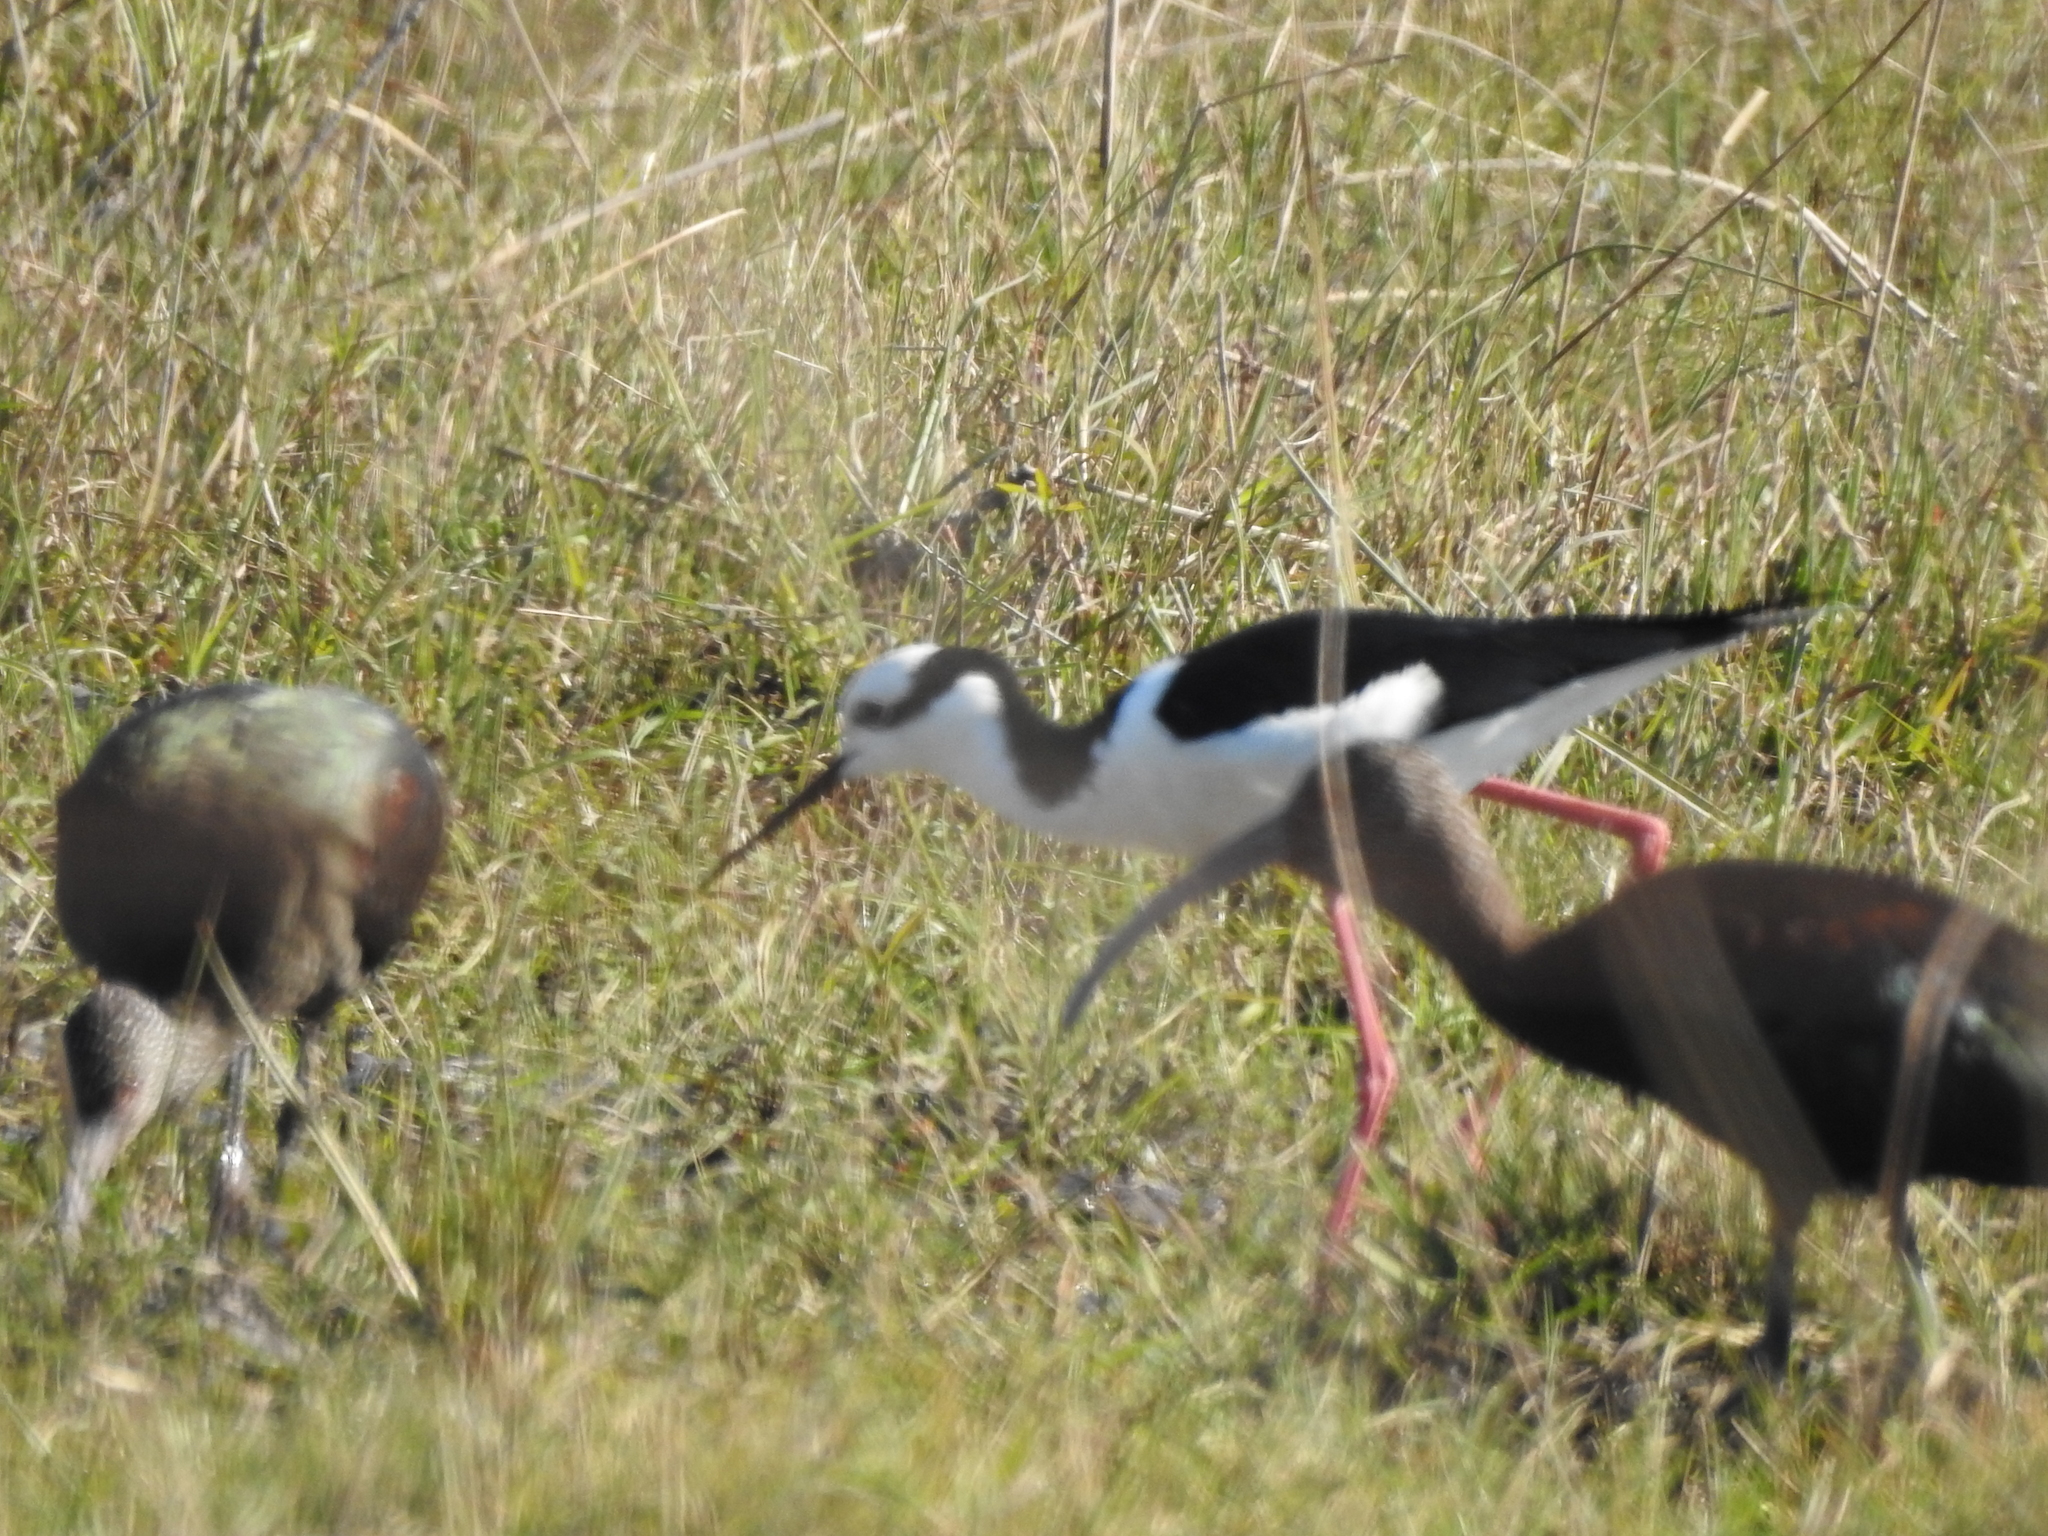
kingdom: Animalia
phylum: Chordata
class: Aves
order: Charadriiformes
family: Recurvirostridae
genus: Himantopus
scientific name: Himantopus mexicanus
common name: Black-necked stilt
